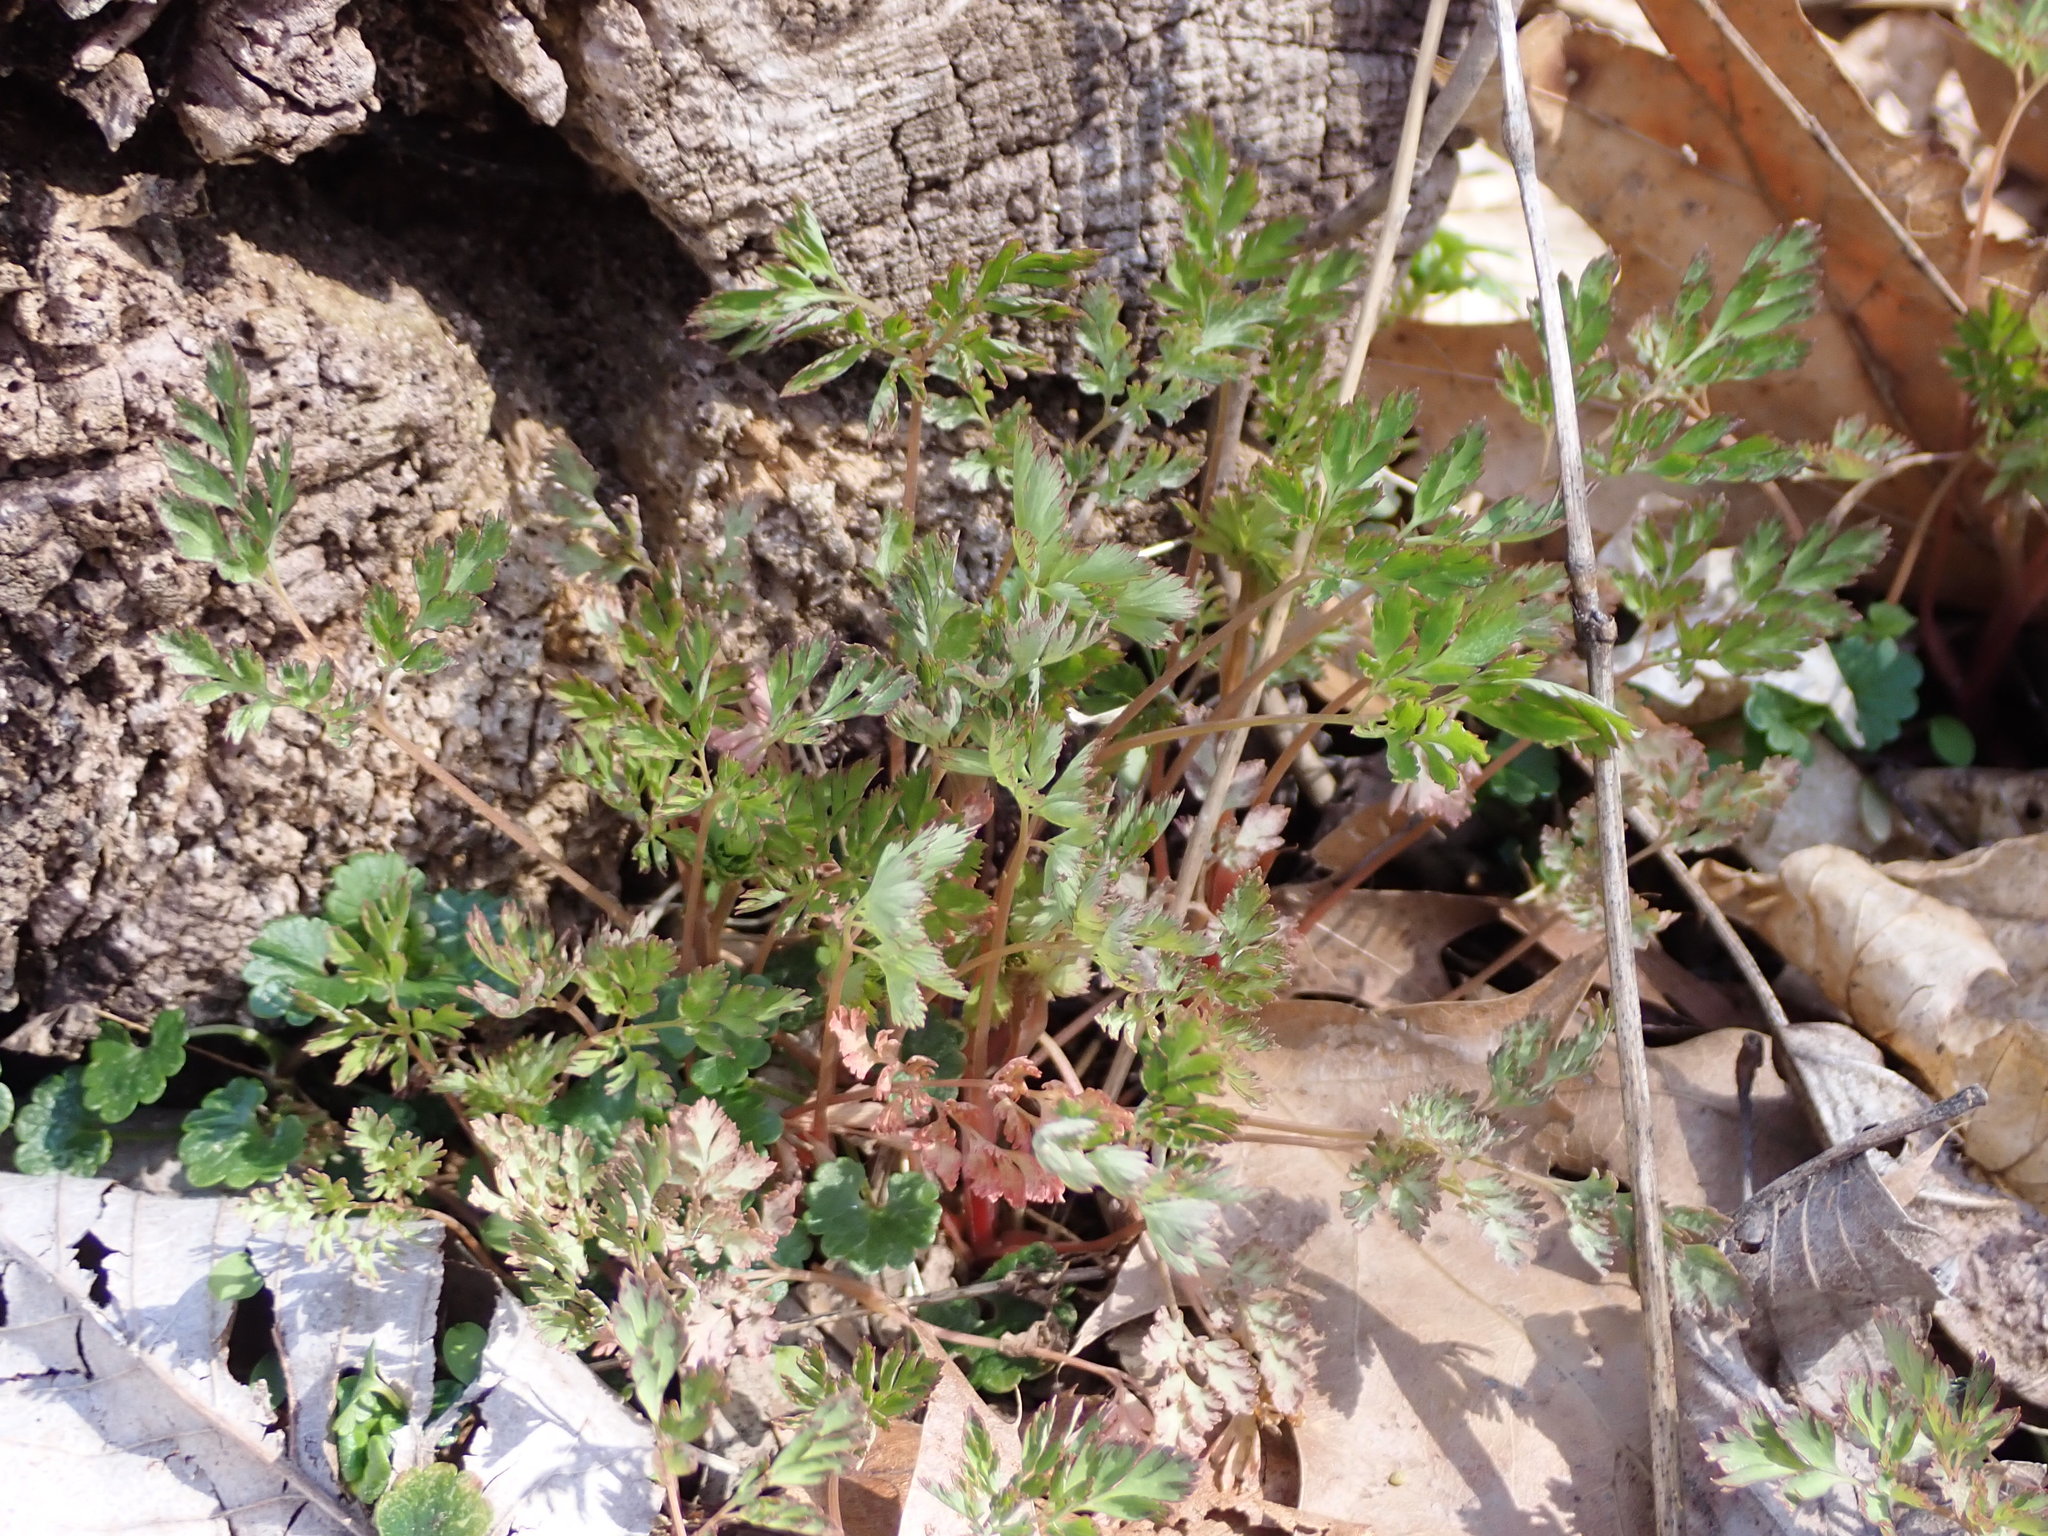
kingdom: Plantae
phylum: Tracheophyta
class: Magnoliopsida
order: Ranunculales
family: Papaveraceae
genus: Corydalis
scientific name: Corydalis incisa
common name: Incised fumewort
